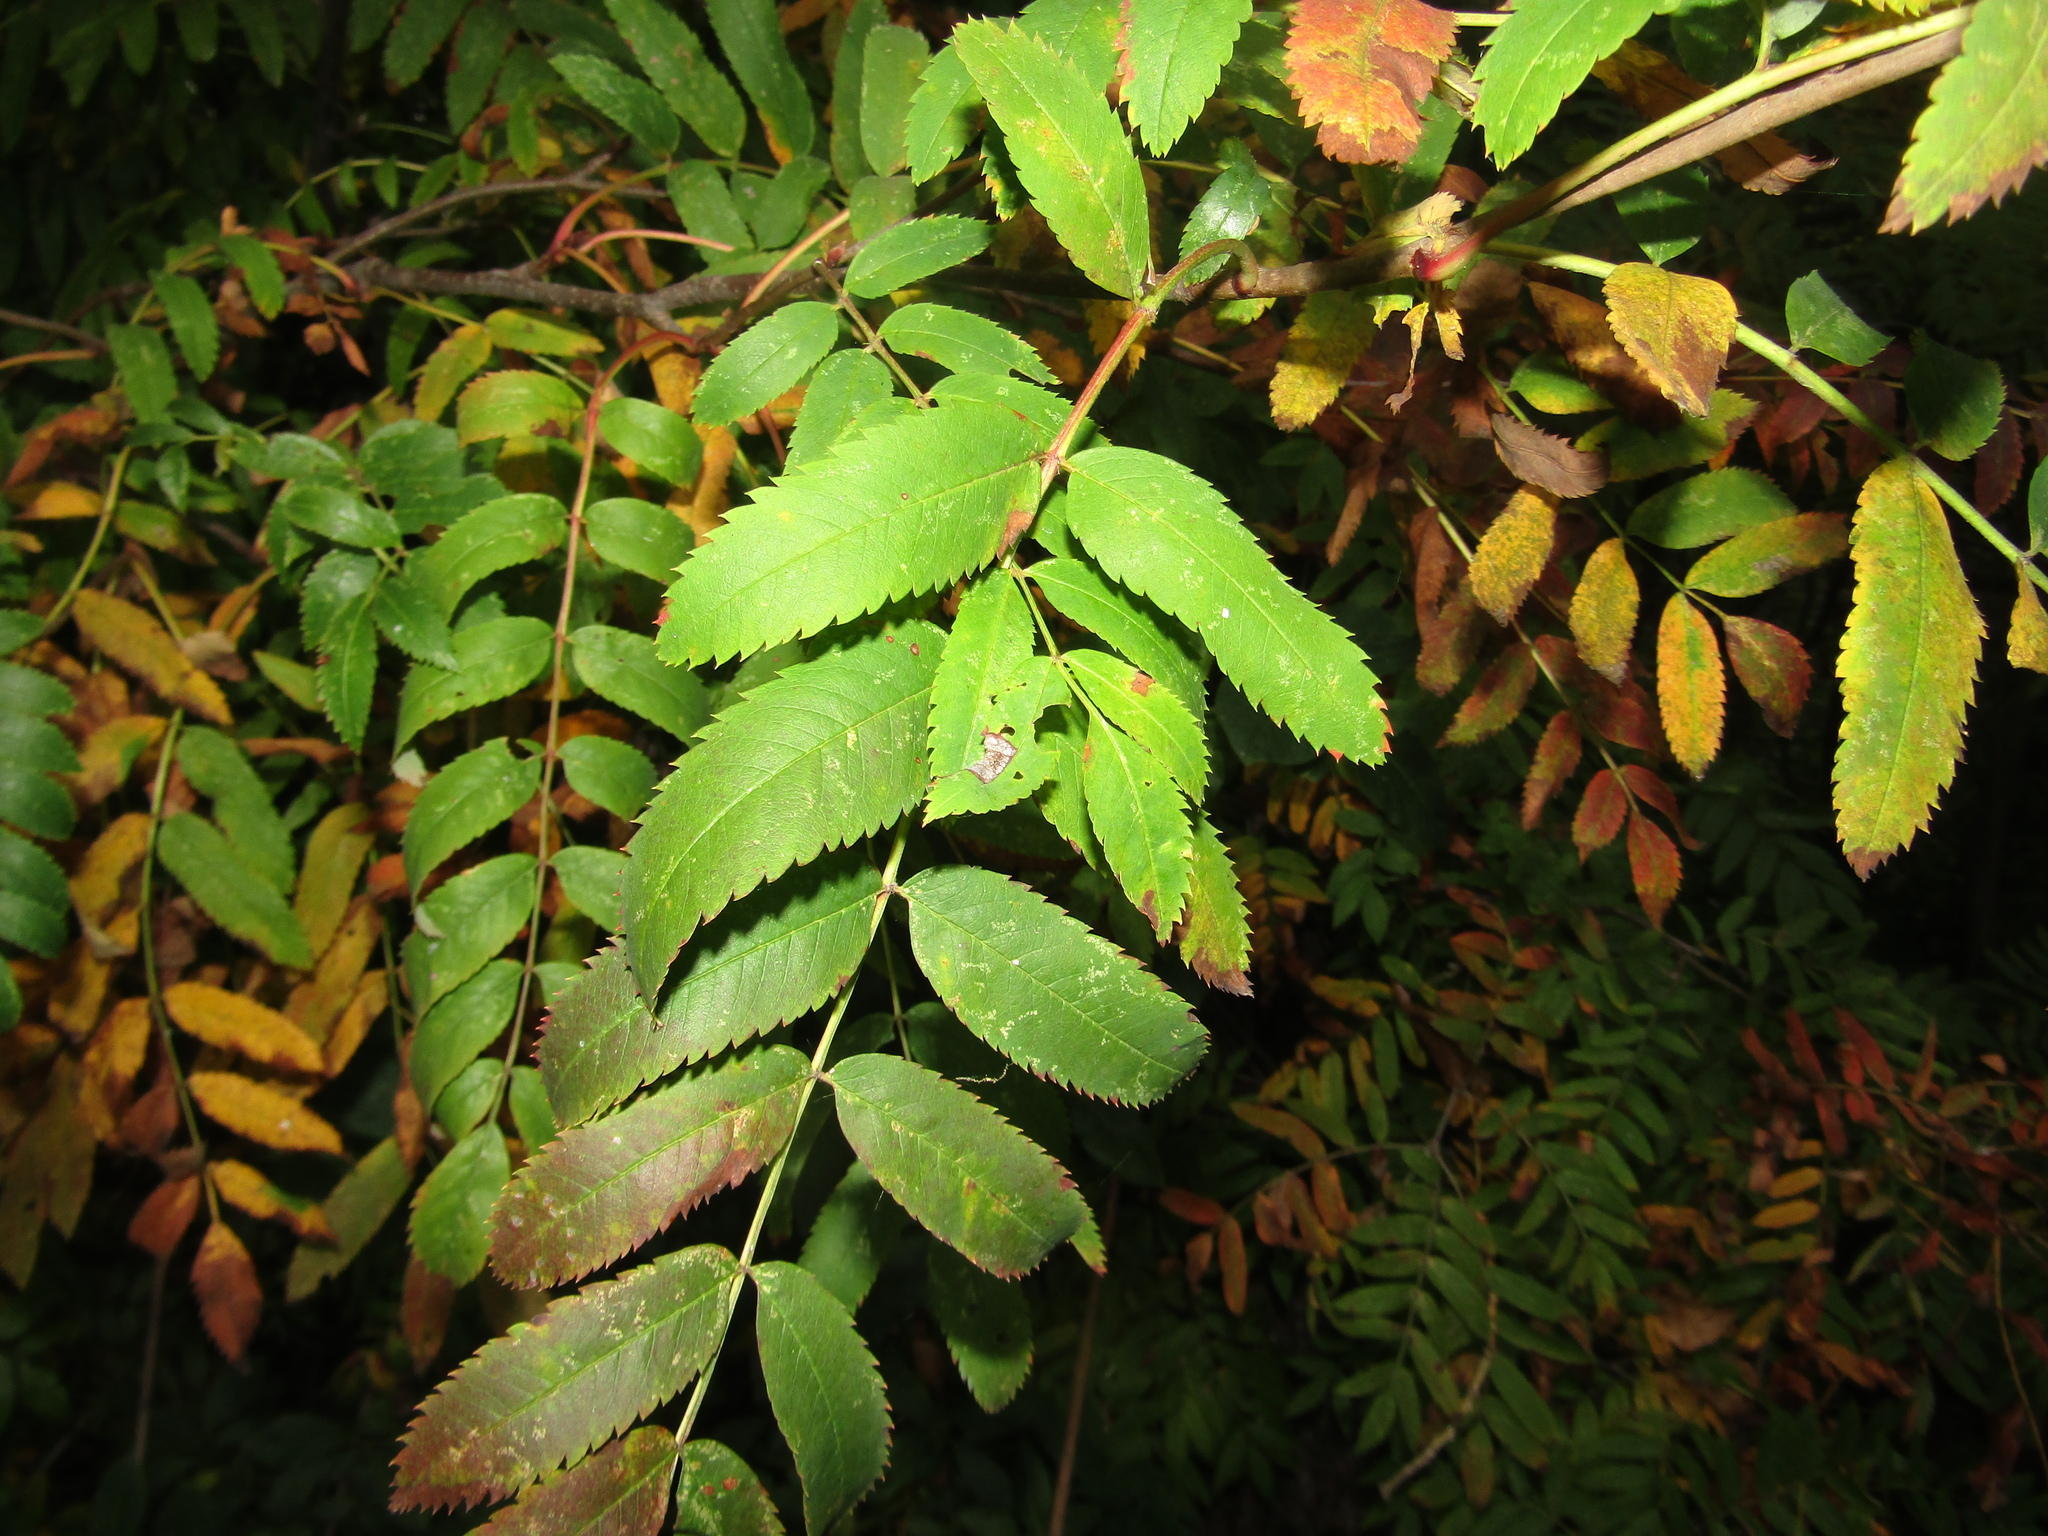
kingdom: Plantae
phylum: Tracheophyta
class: Magnoliopsida
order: Rosales
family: Rosaceae
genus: Sorbus
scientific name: Sorbus aucuparia
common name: Rowan
